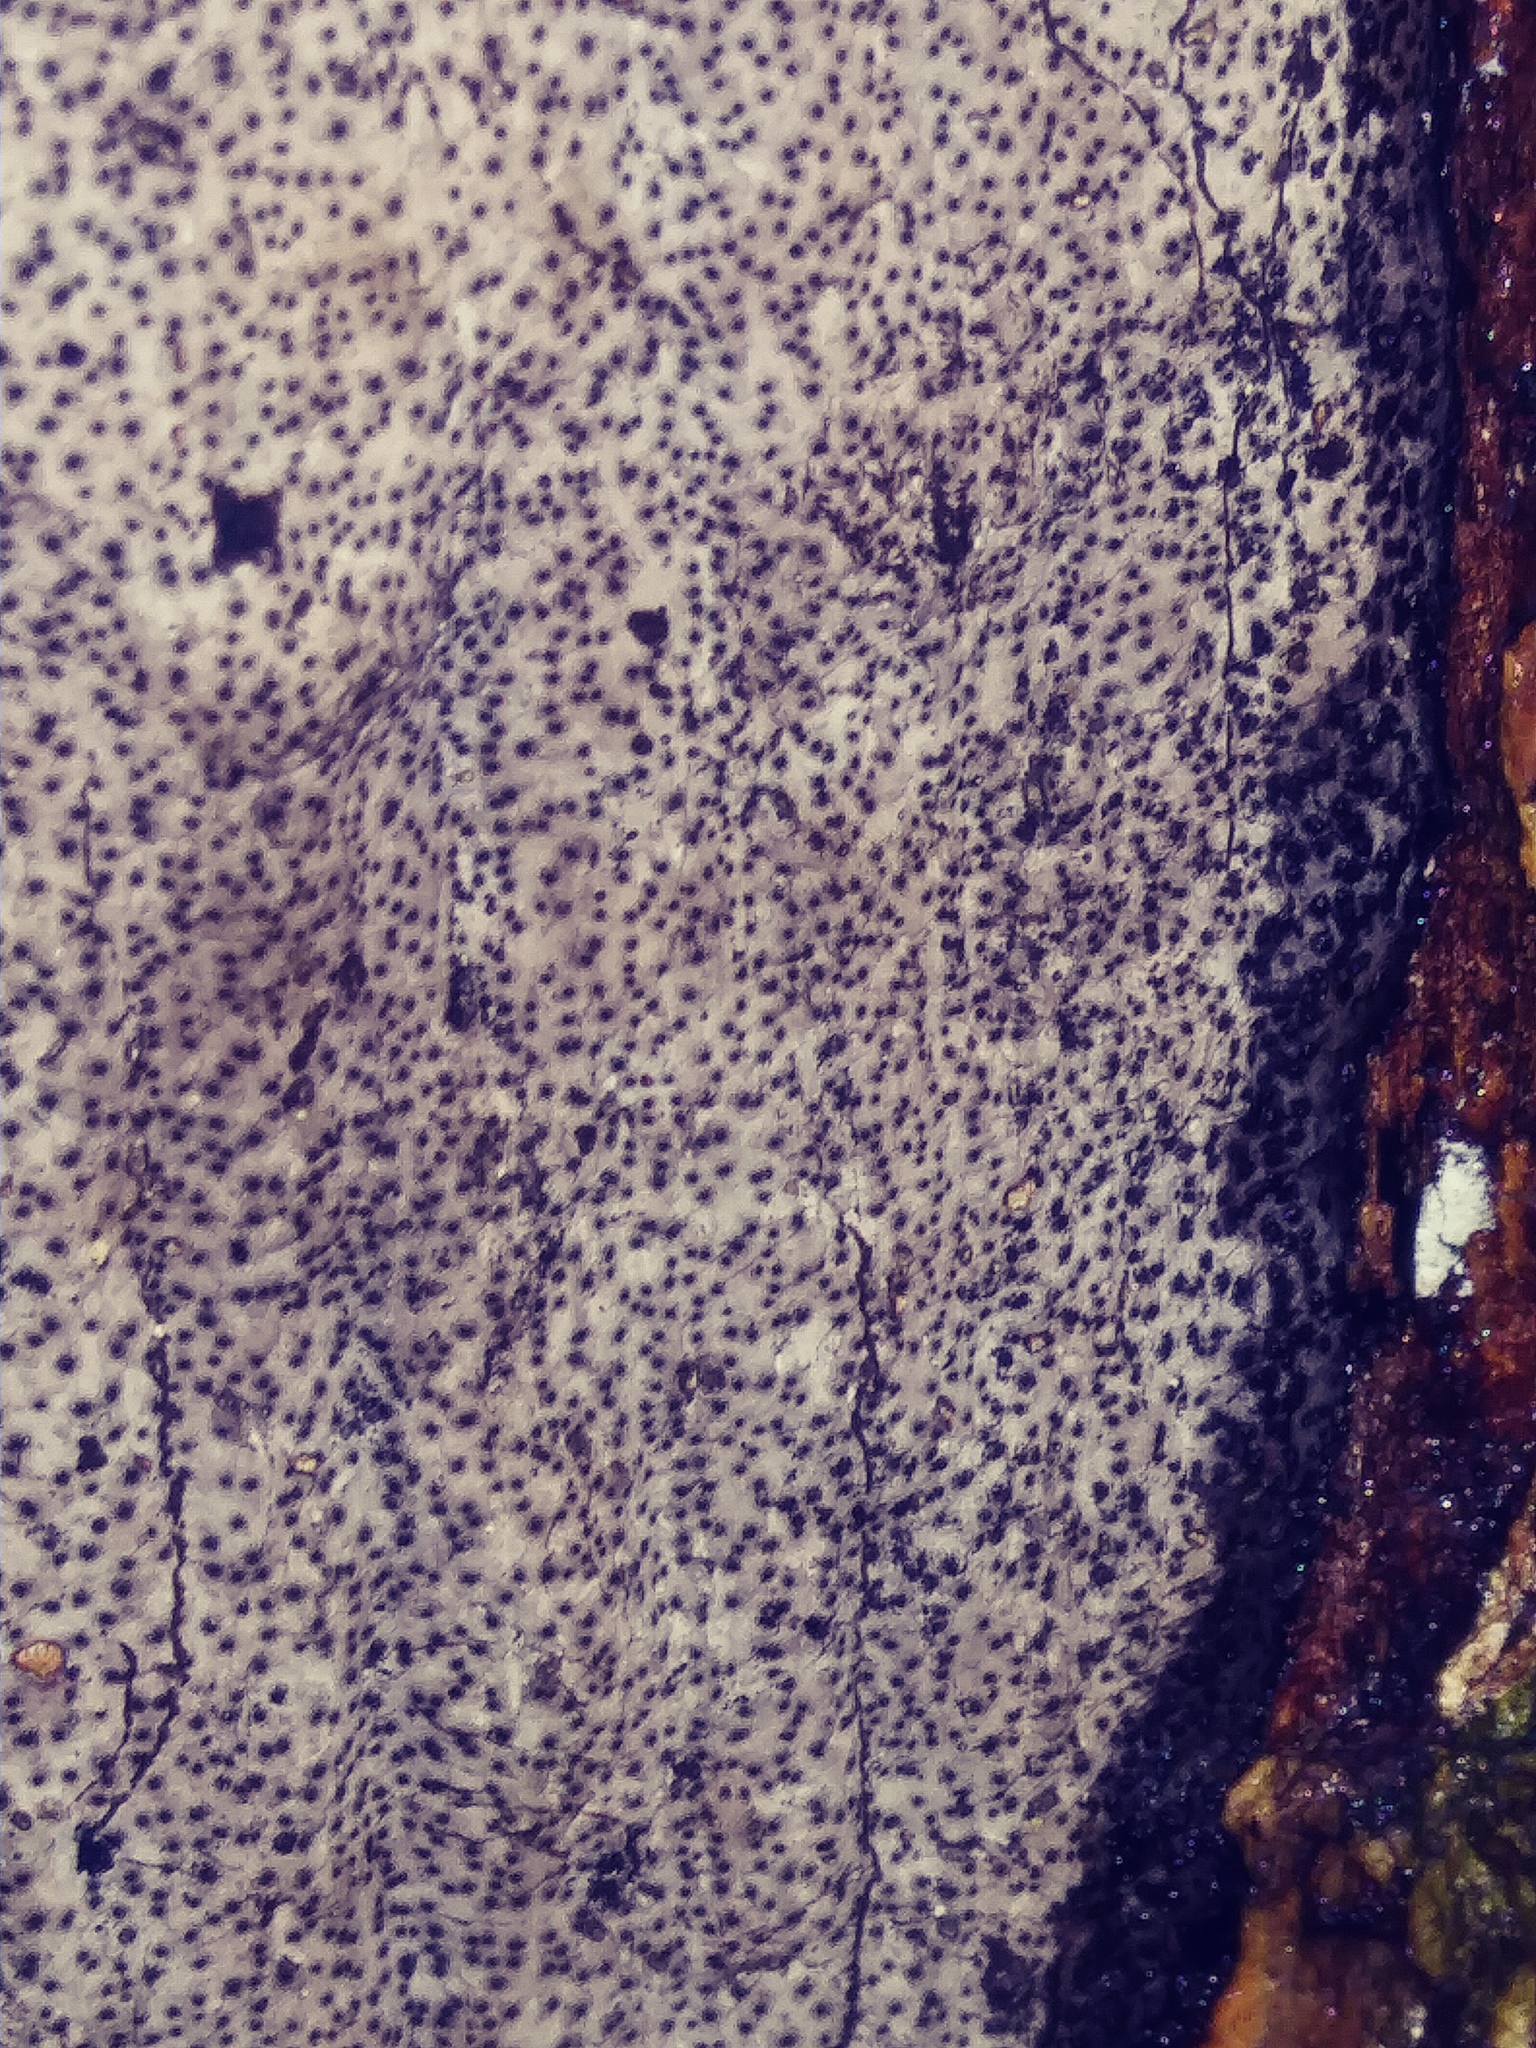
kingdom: Fungi
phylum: Ascomycota
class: Sordariomycetes
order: Xylariales
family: Graphostromataceae
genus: Biscogniauxia
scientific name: Biscogniauxia atropunctata
